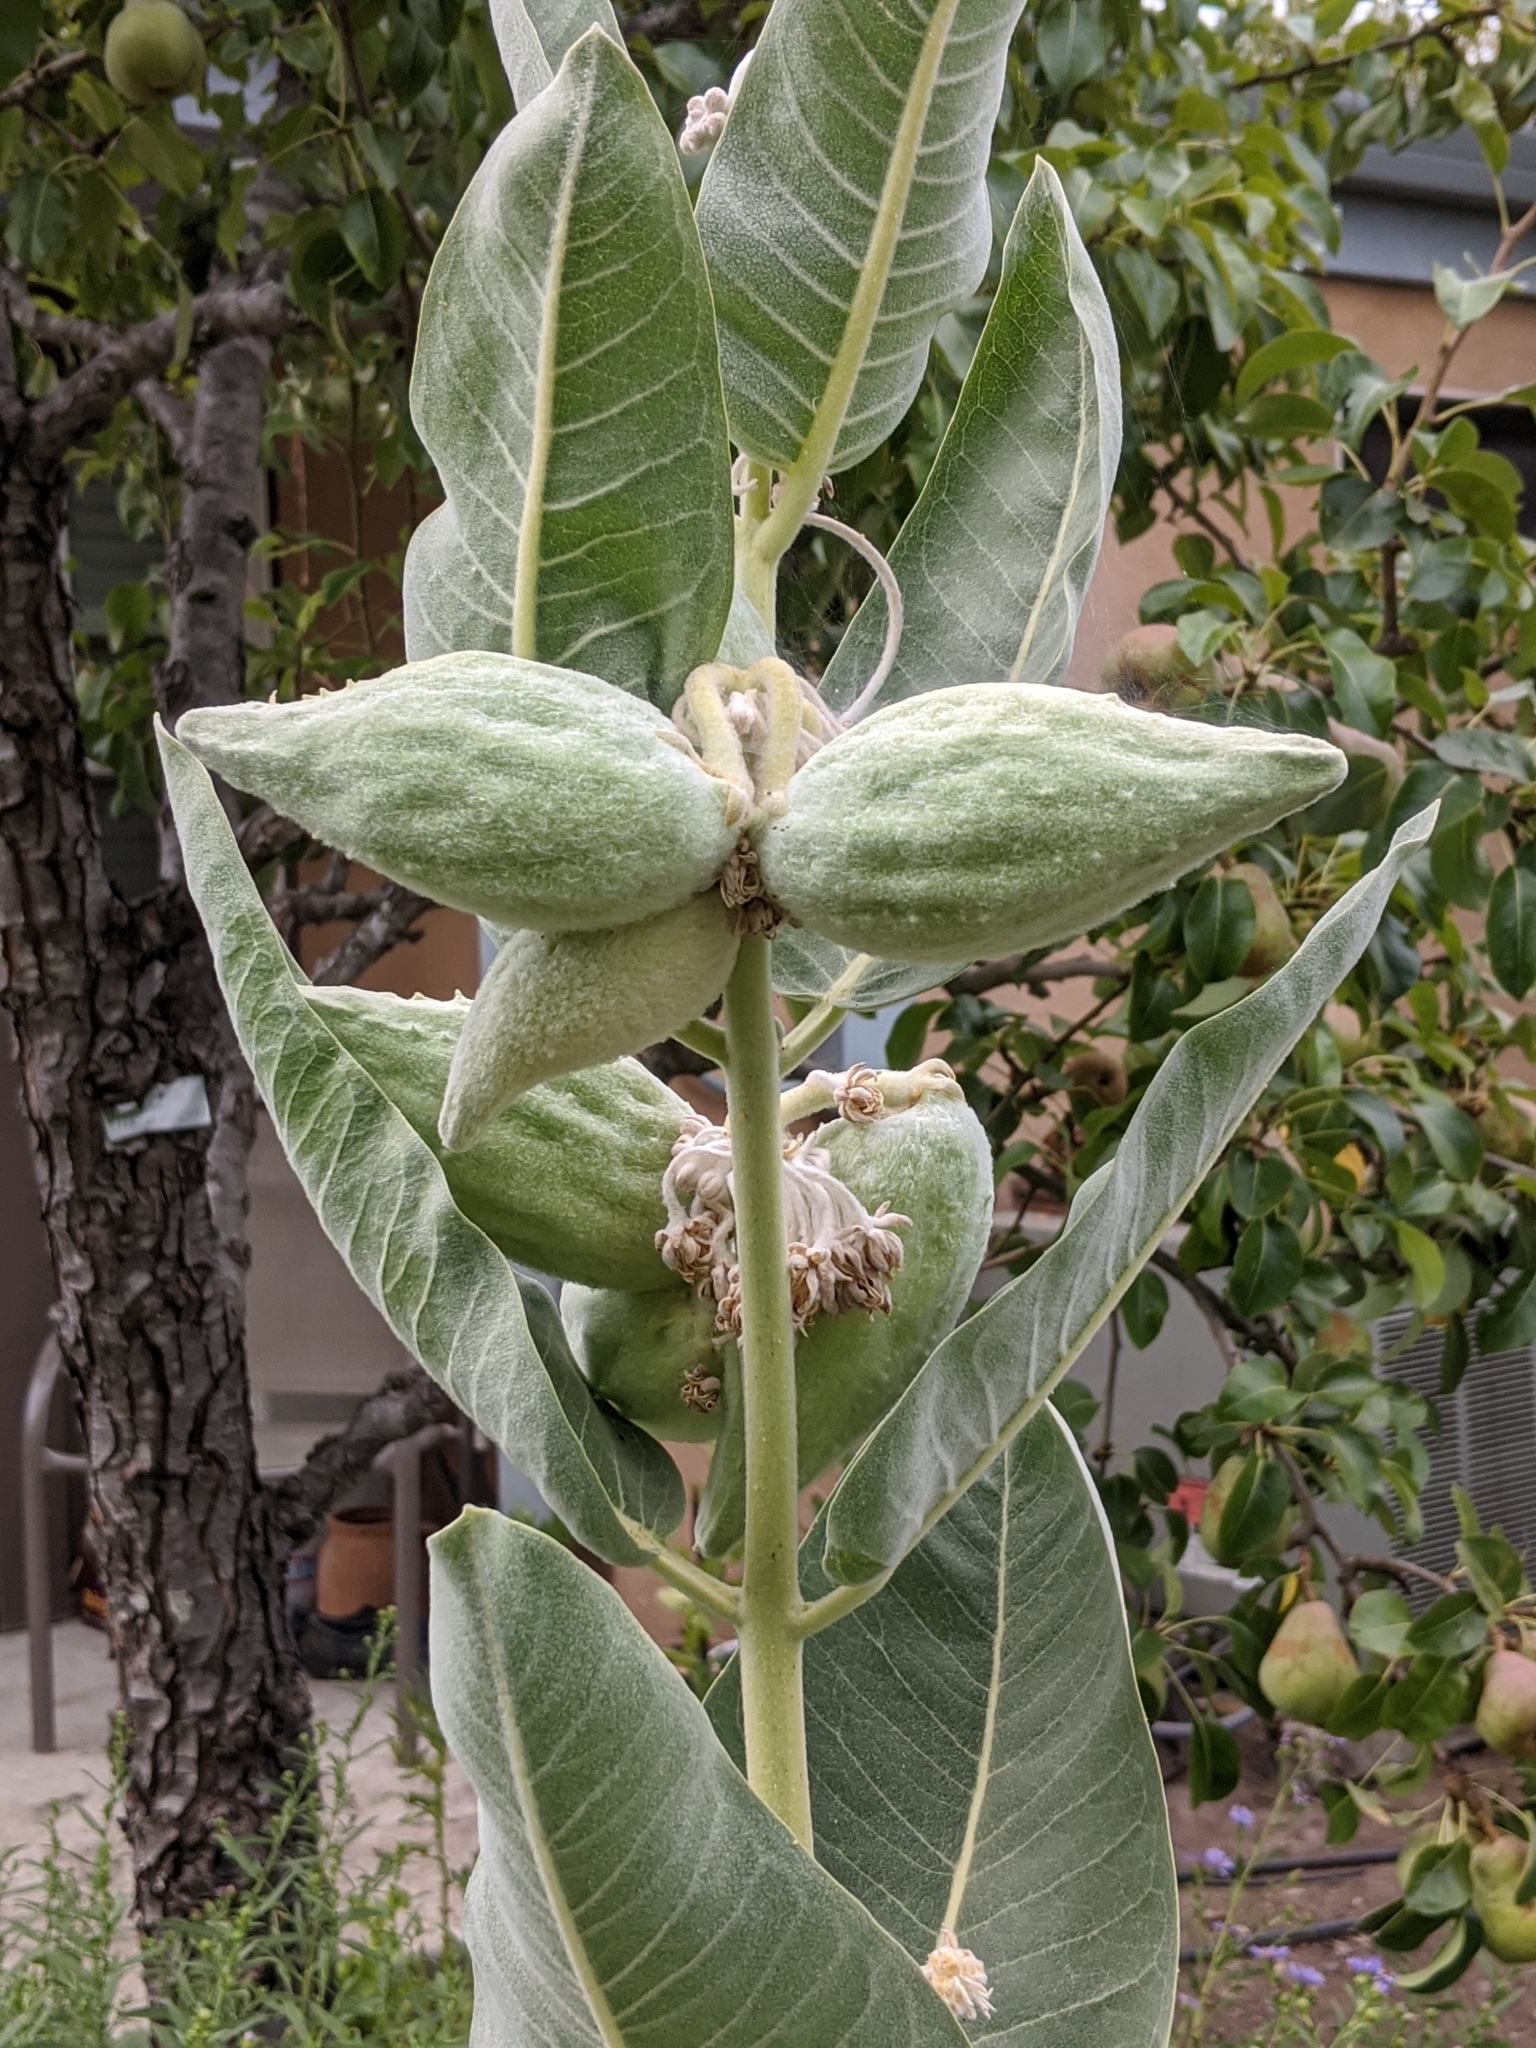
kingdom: Plantae
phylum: Tracheophyta
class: Magnoliopsida
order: Gentianales
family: Apocynaceae
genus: Asclepias
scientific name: Asclepias speciosa
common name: Showy milkweed
